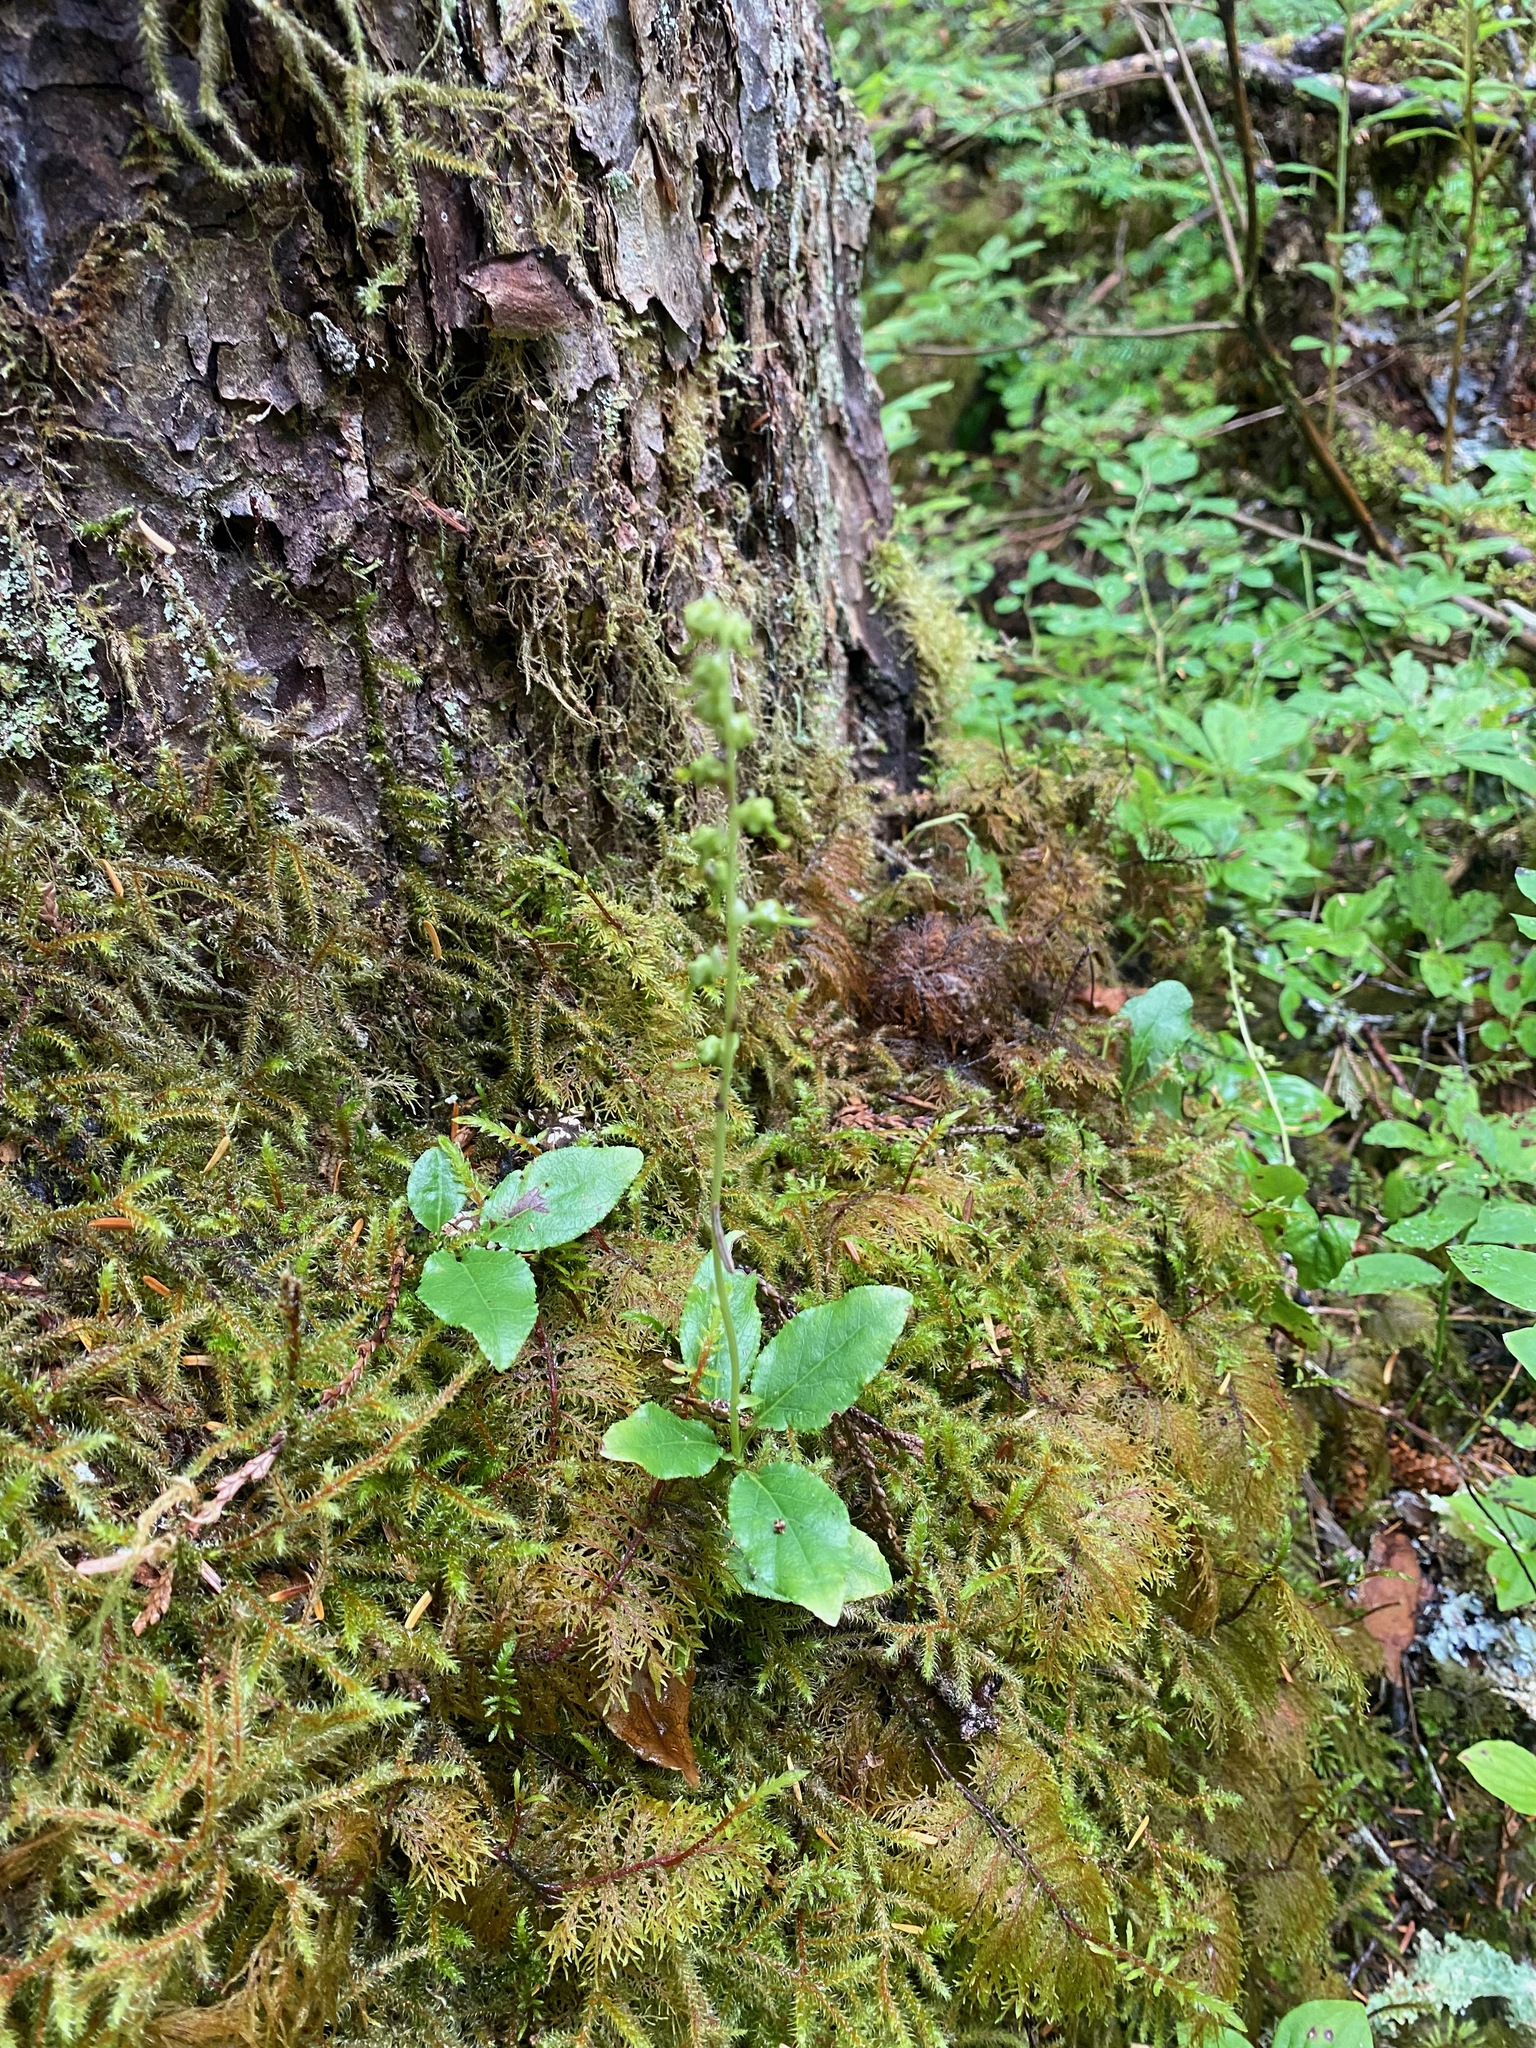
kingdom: Plantae
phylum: Tracheophyta
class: Magnoliopsida
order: Ericales
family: Ericaceae
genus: Orthilia
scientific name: Orthilia secunda
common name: One-sided orthilia
